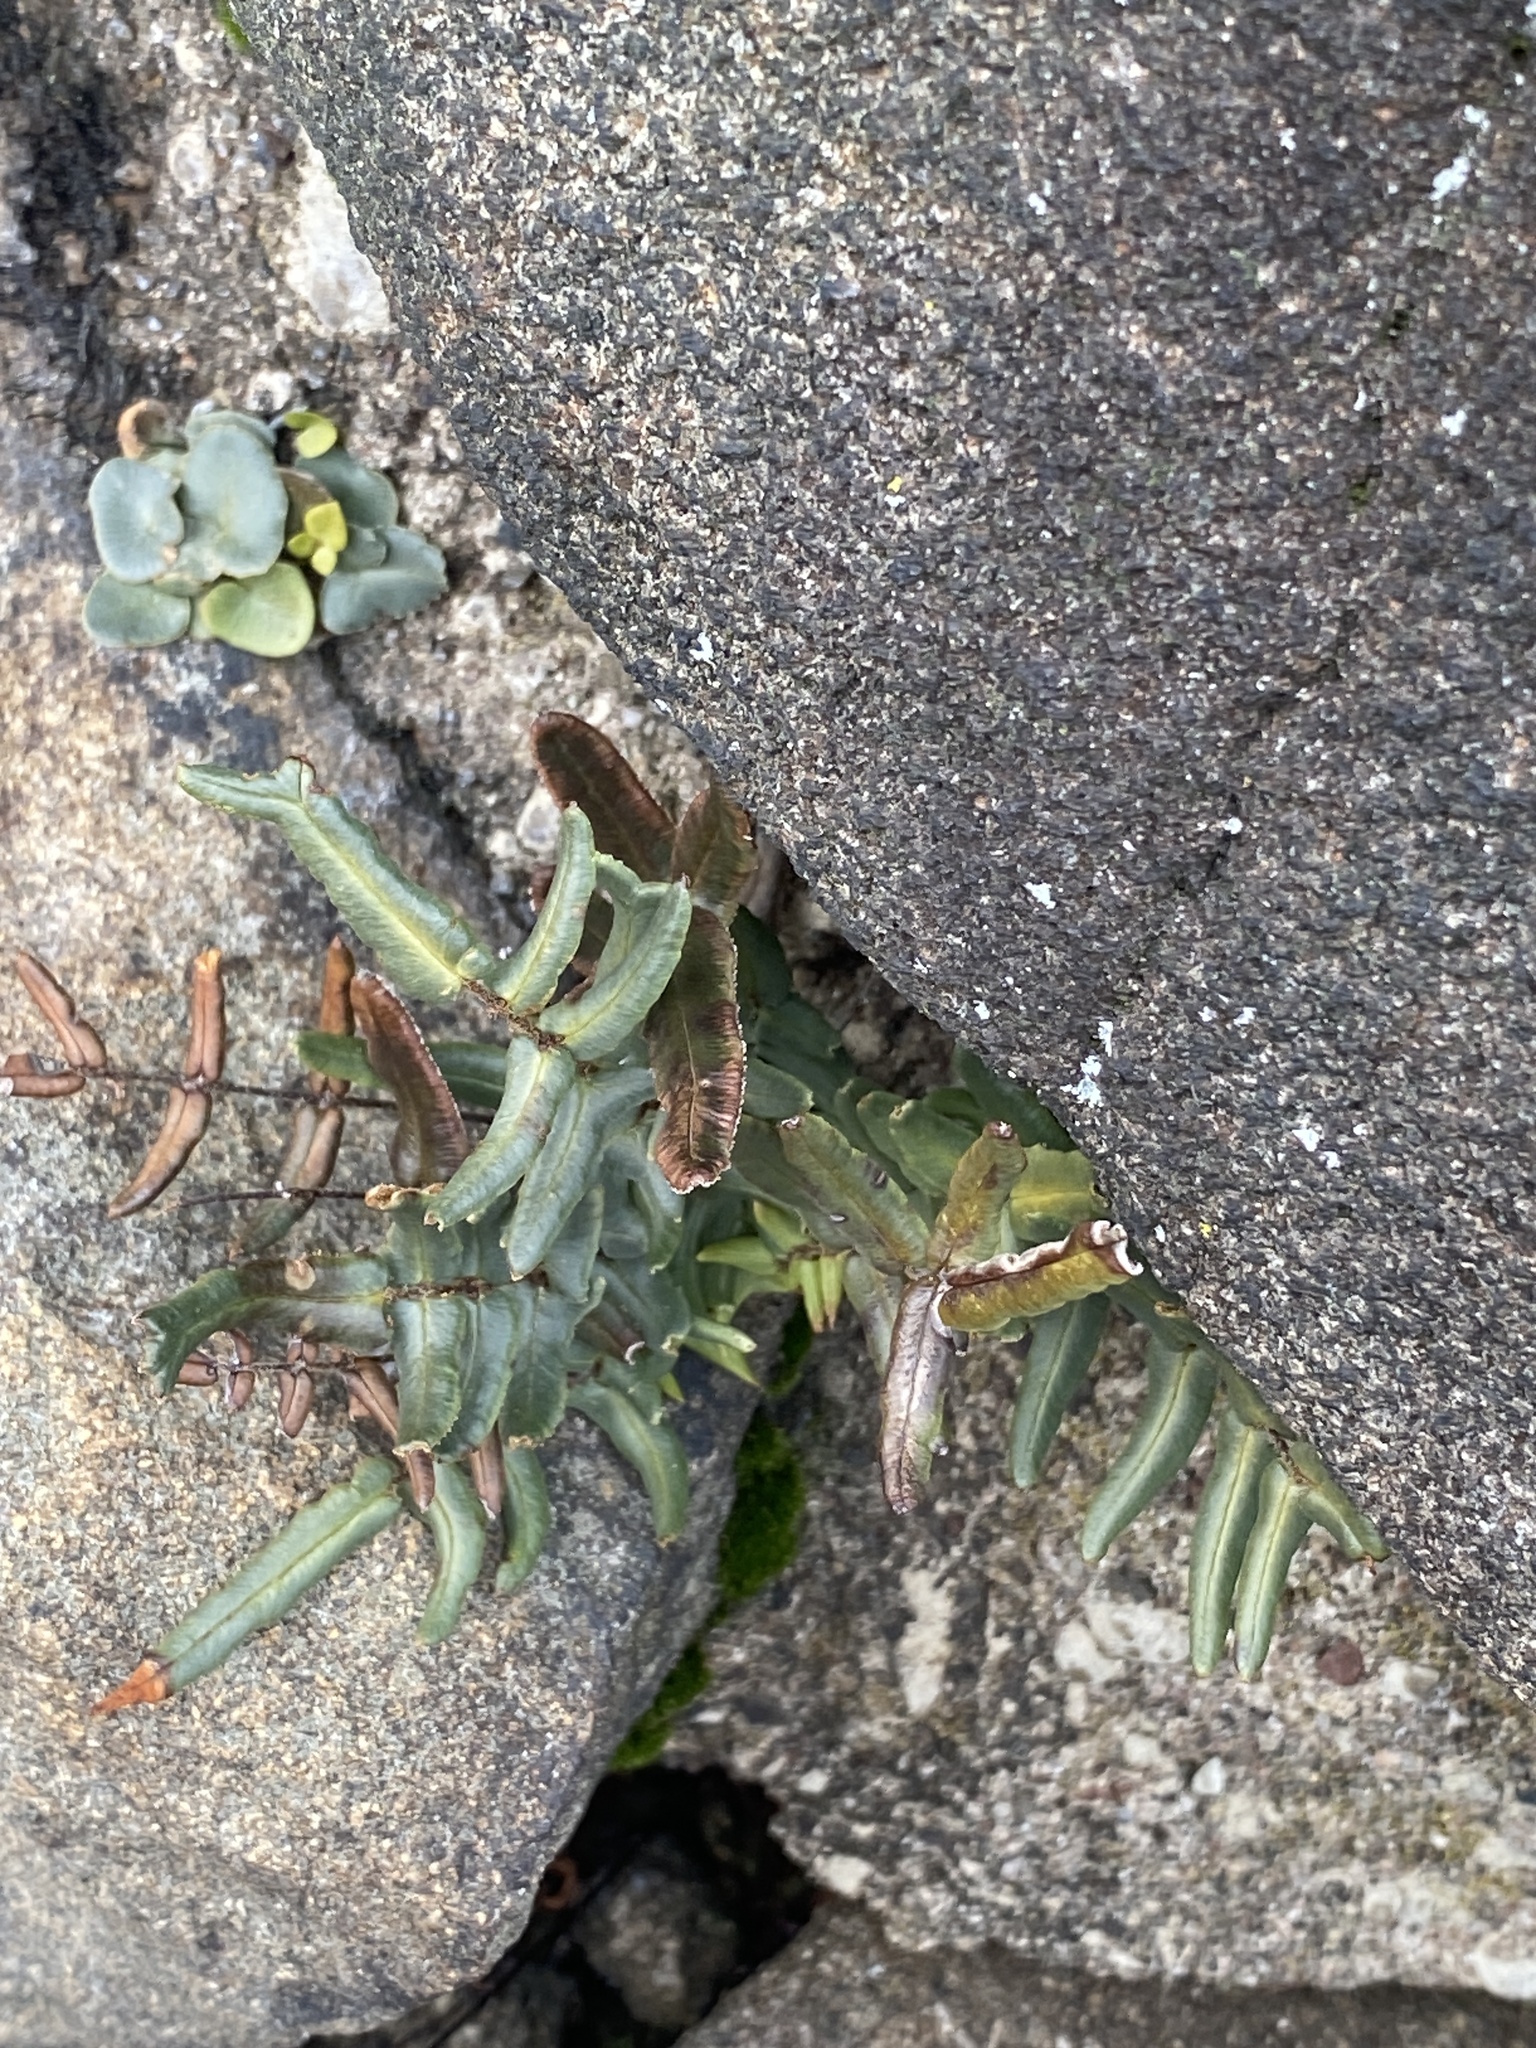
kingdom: Plantae
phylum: Tracheophyta
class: Polypodiopsida
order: Polypodiales
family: Pteridaceae
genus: Pellaea
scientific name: Pellaea atropurpurea
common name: Hairy cliffbrake
